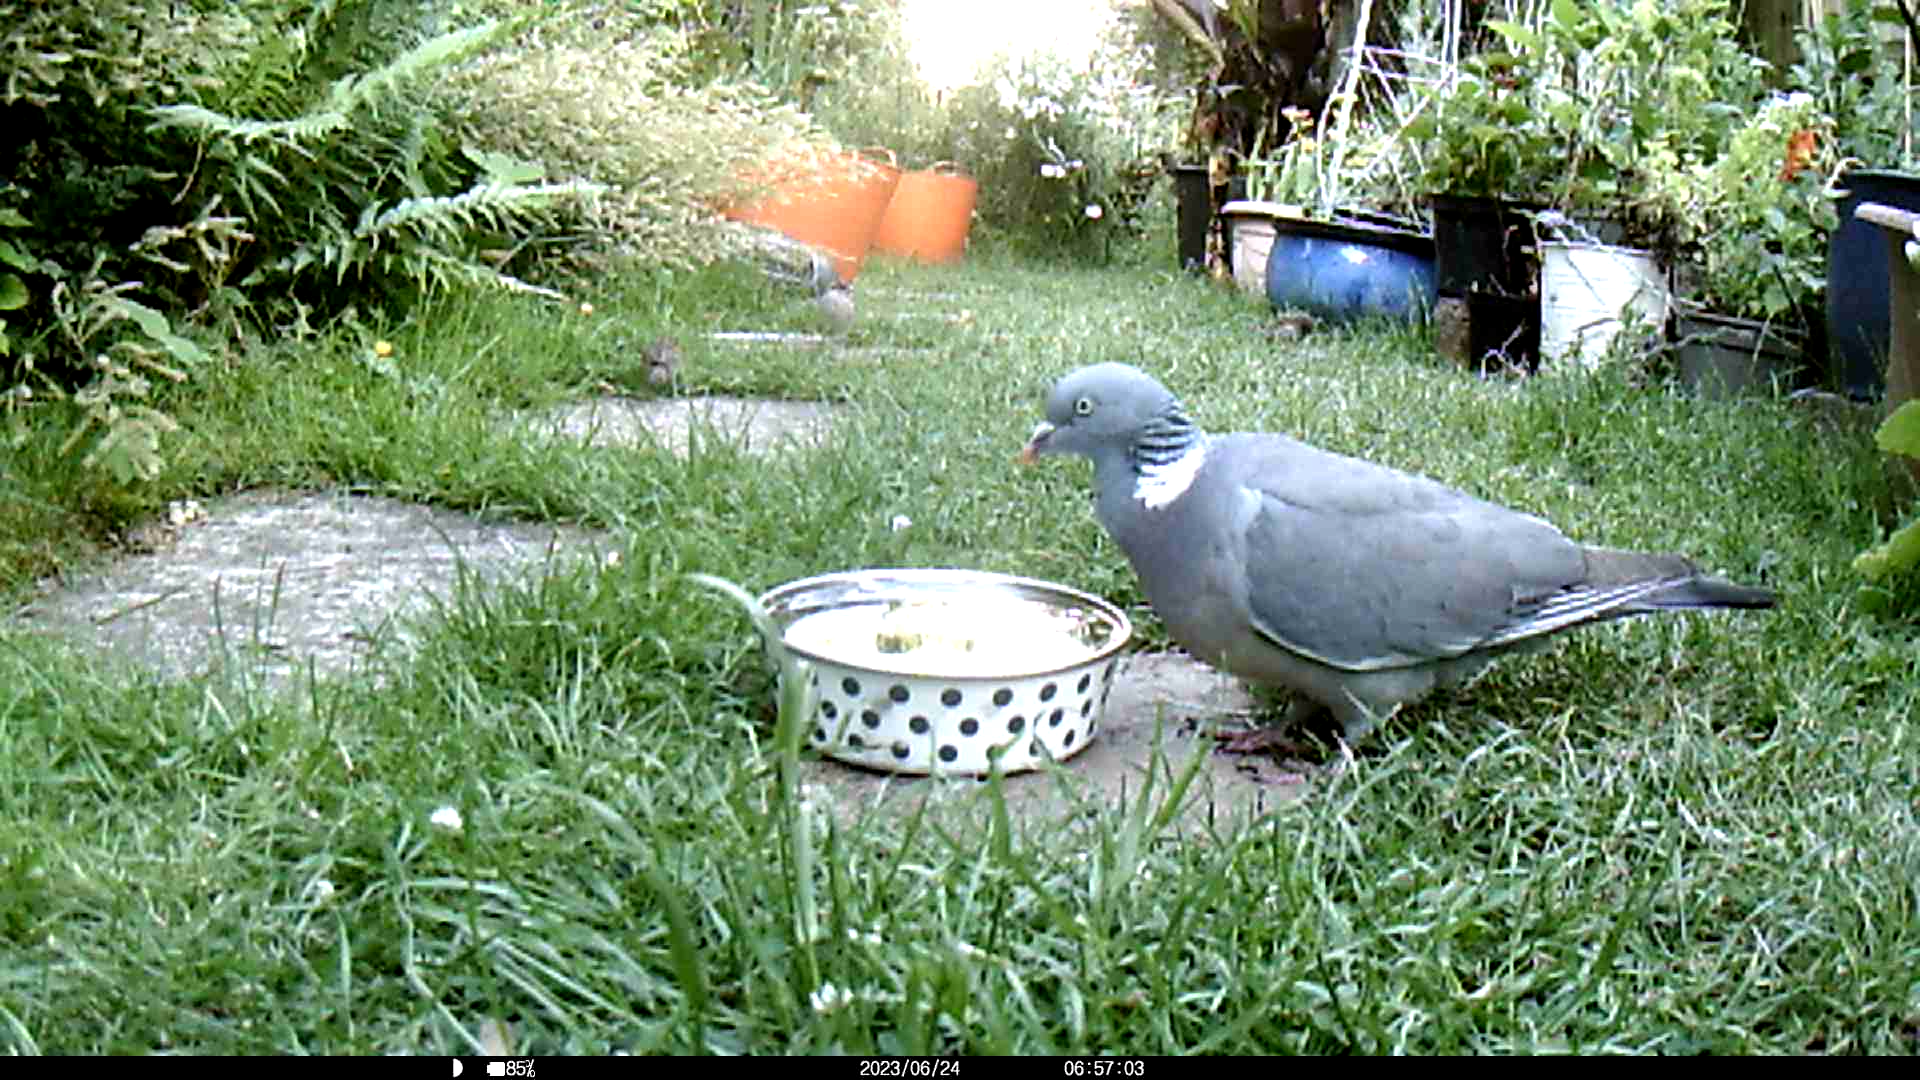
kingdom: Animalia
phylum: Chordata
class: Aves
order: Columbiformes
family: Columbidae
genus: Columba
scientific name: Columba palumbus
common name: Common wood pigeon
